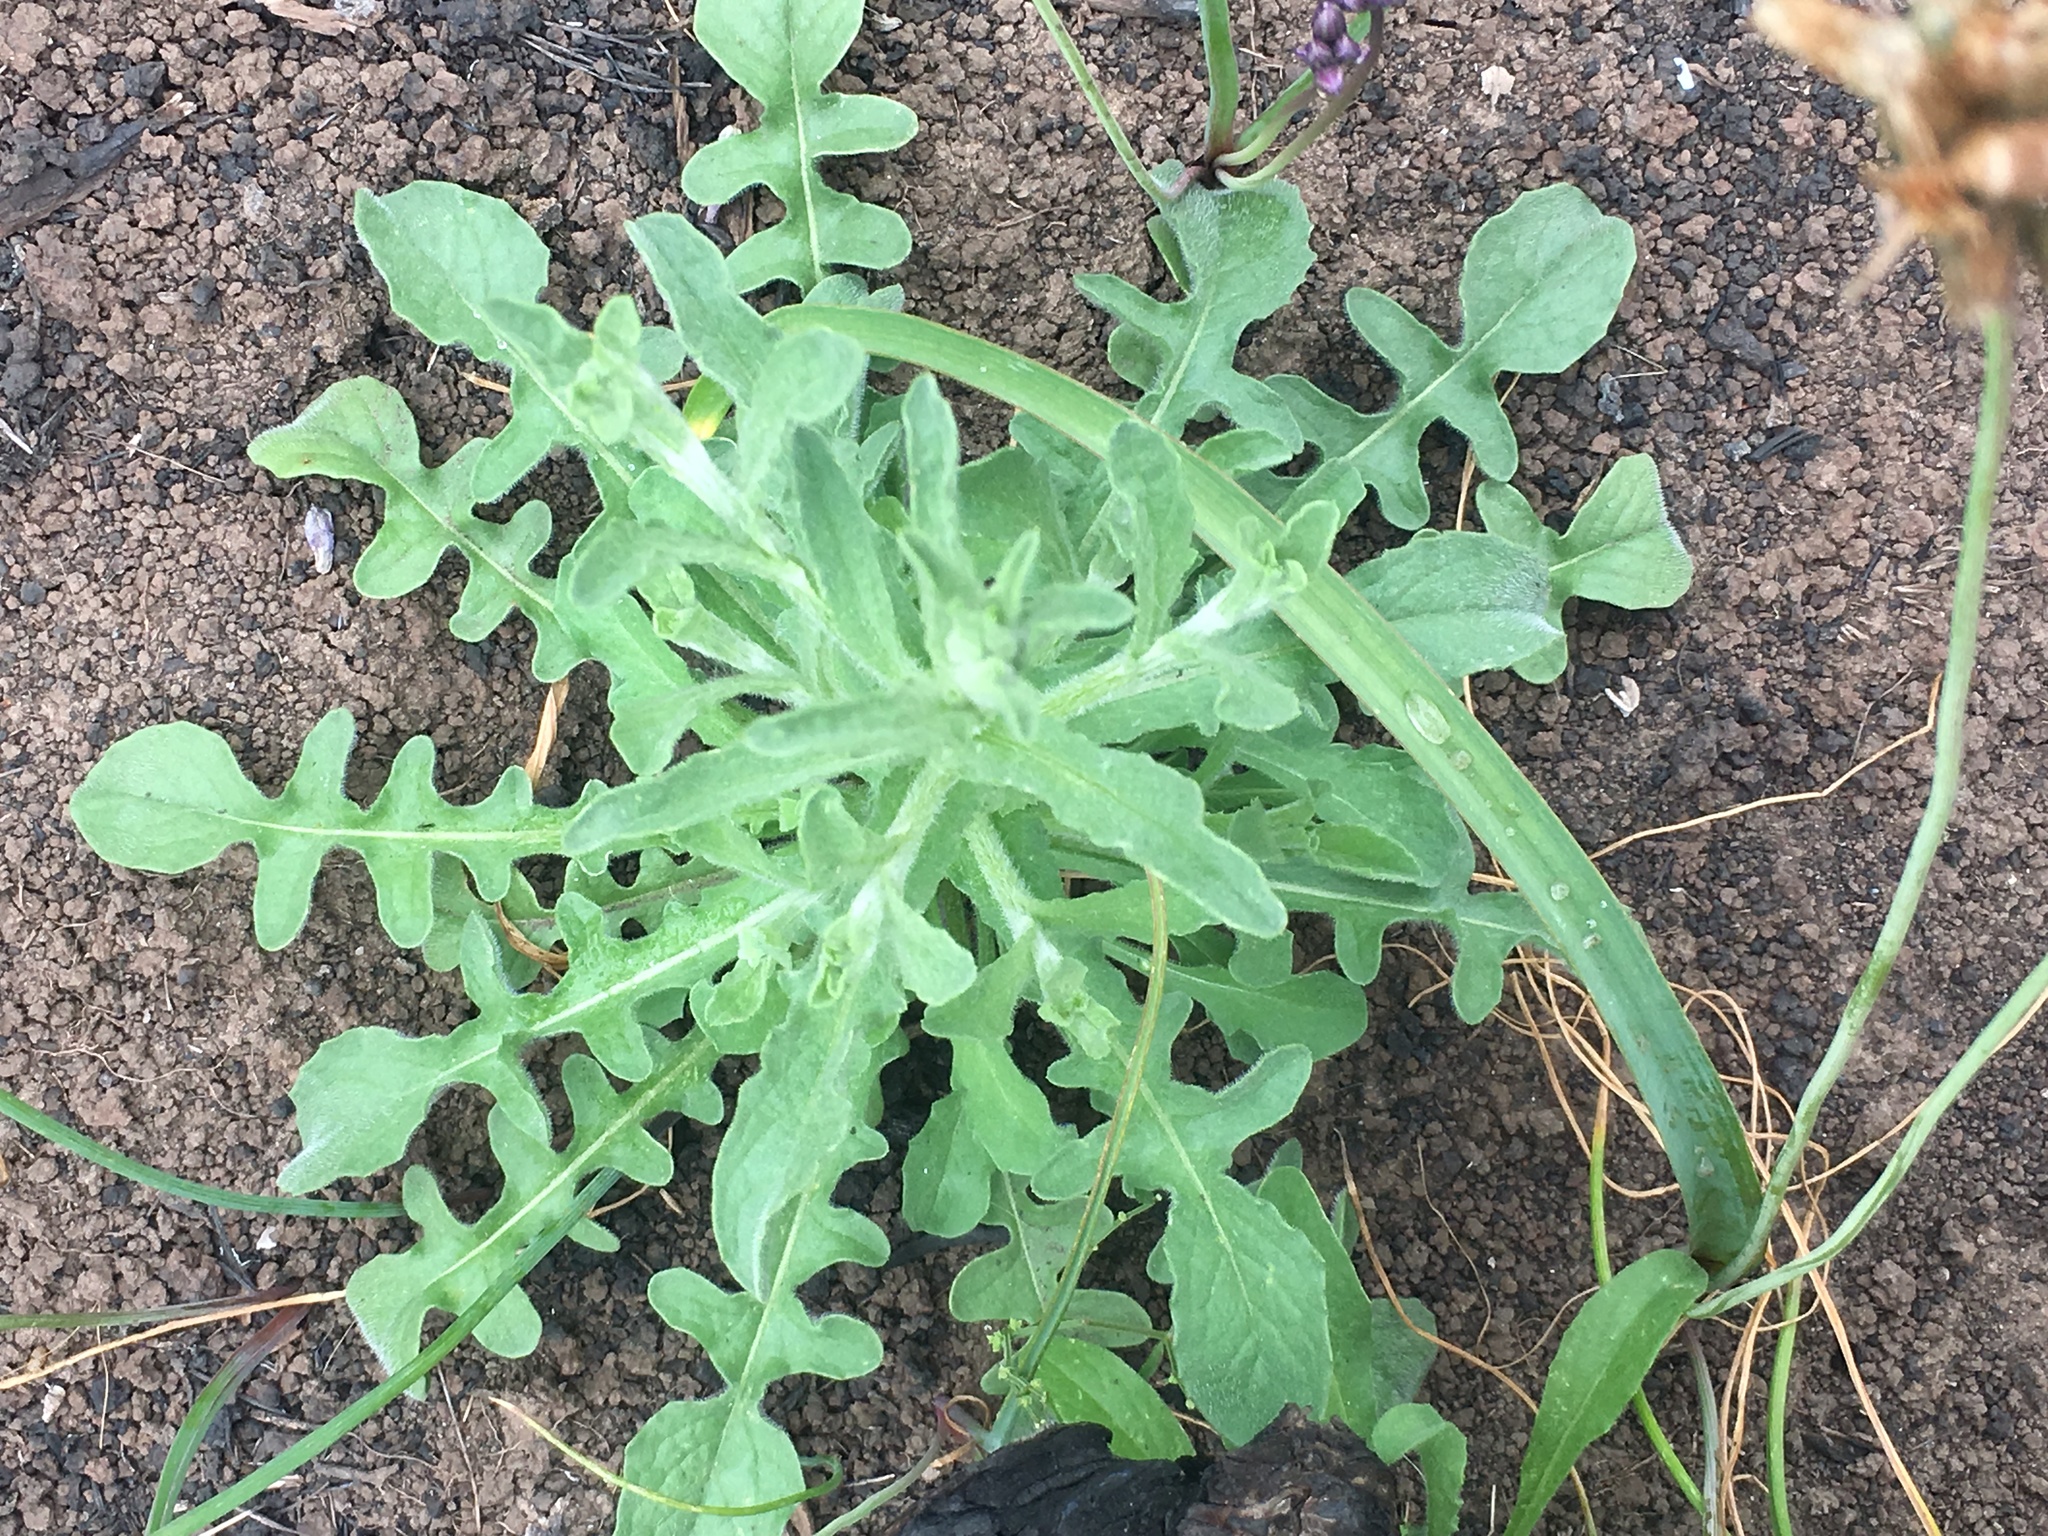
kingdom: Plantae
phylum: Tracheophyta
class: Magnoliopsida
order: Asterales
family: Asteraceae
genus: Centaurea
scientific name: Centaurea melitensis
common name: Maltese star-thistle
